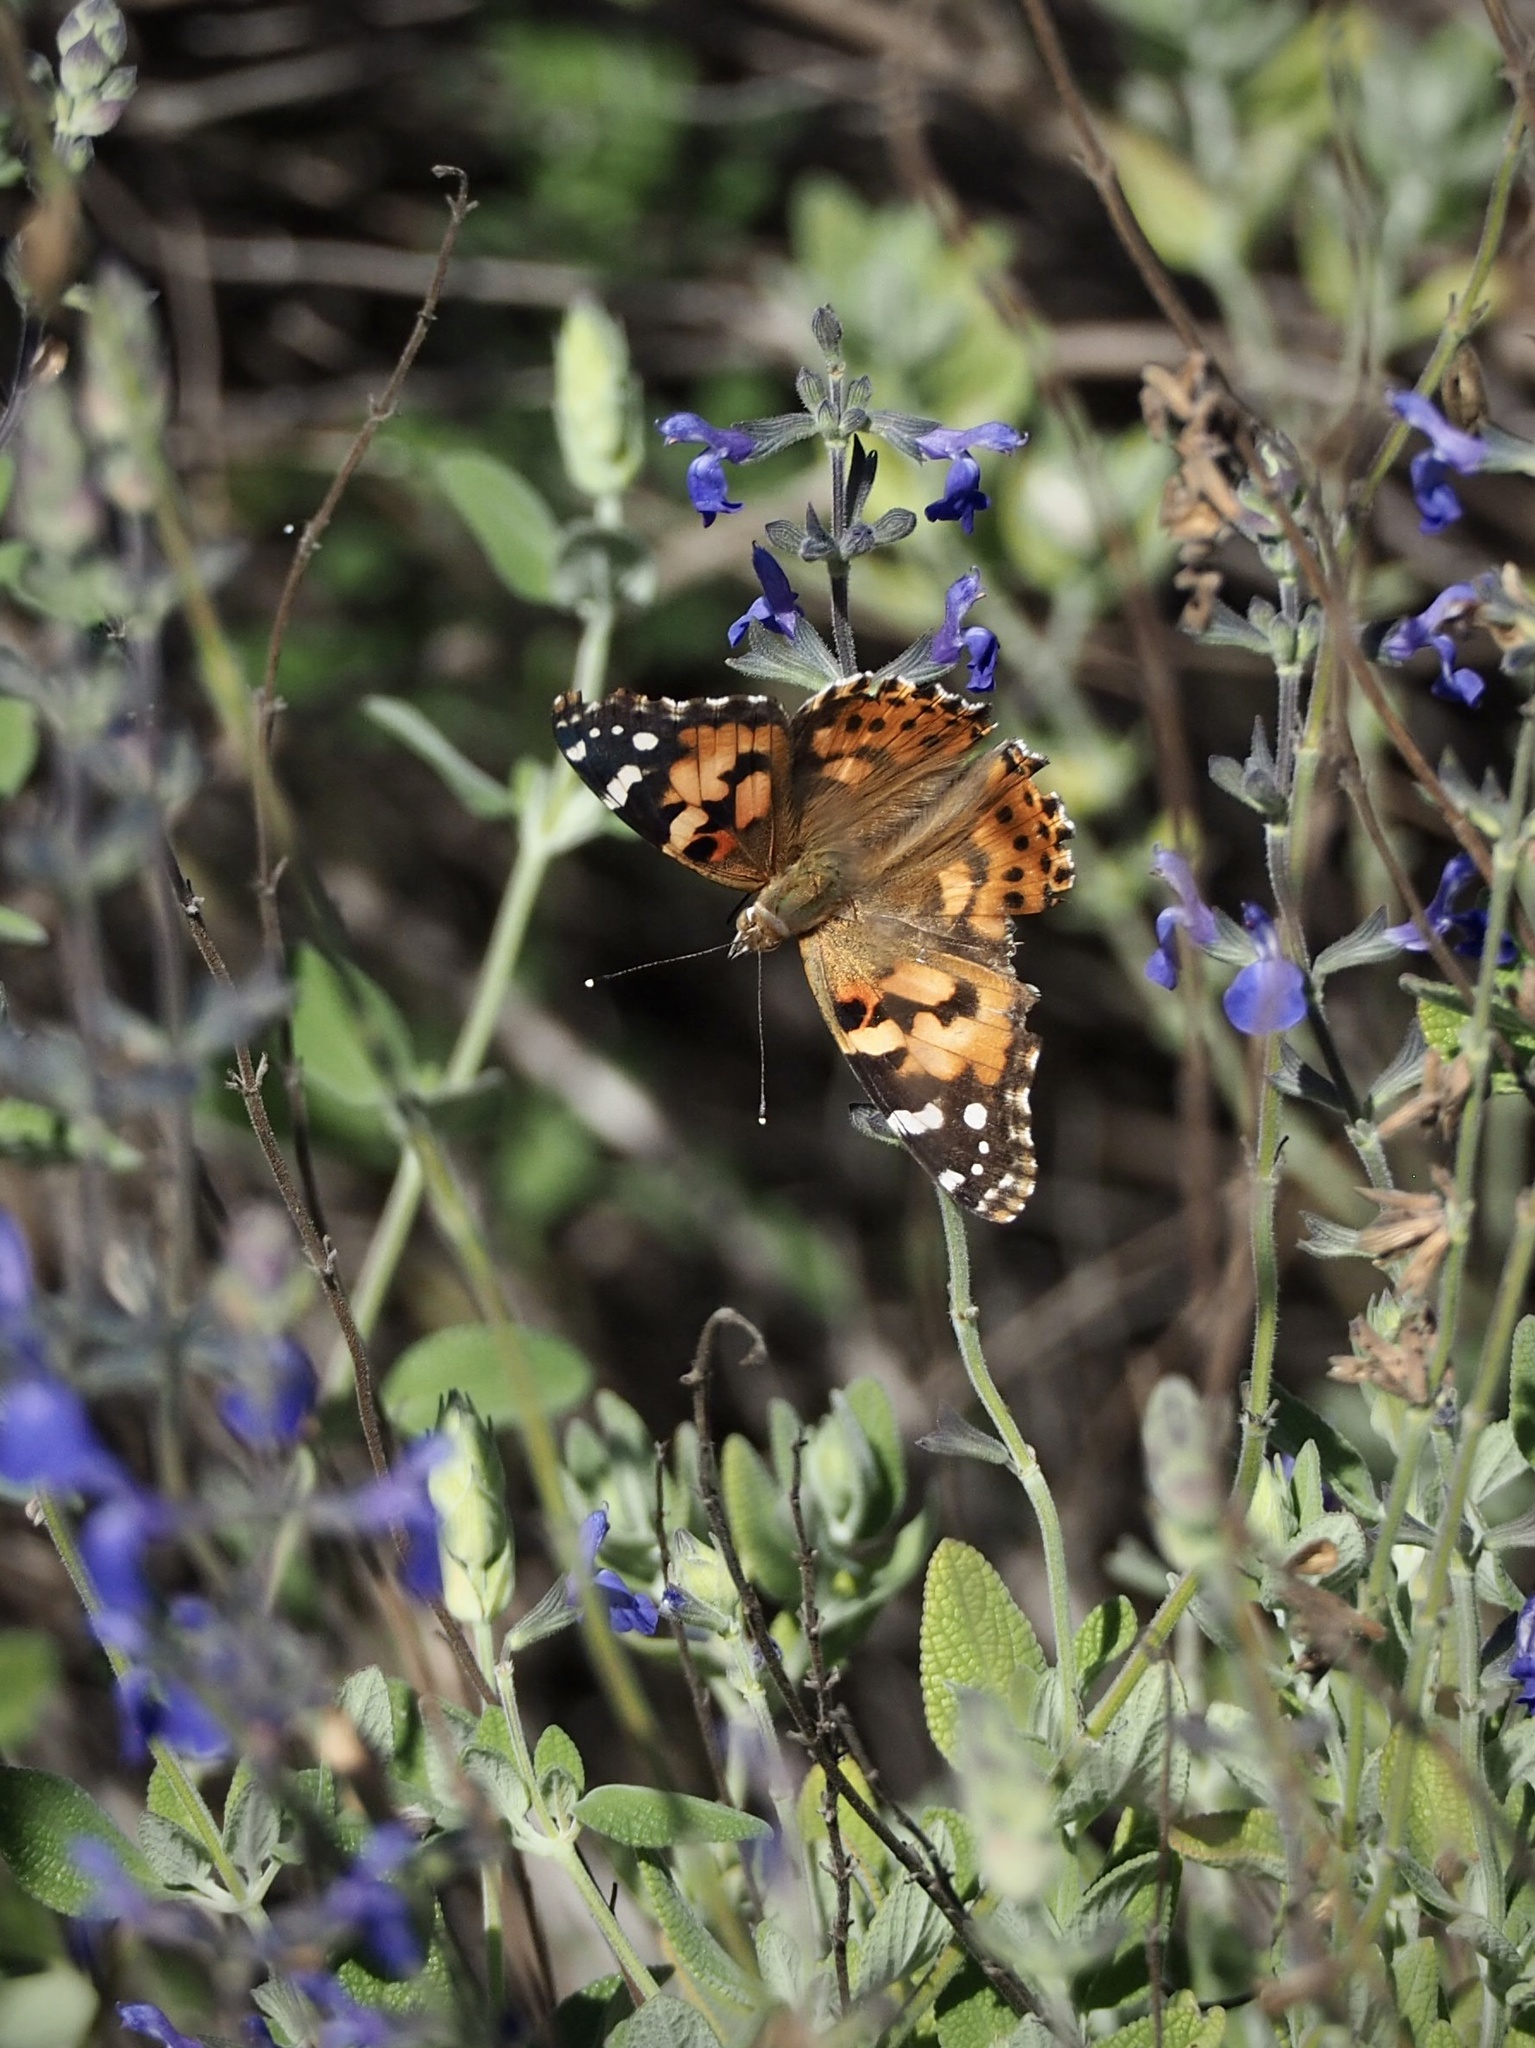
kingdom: Animalia
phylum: Arthropoda
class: Insecta
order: Lepidoptera
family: Nymphalidae
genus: Vanessa
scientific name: Vanessa cardui
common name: Painted lady
